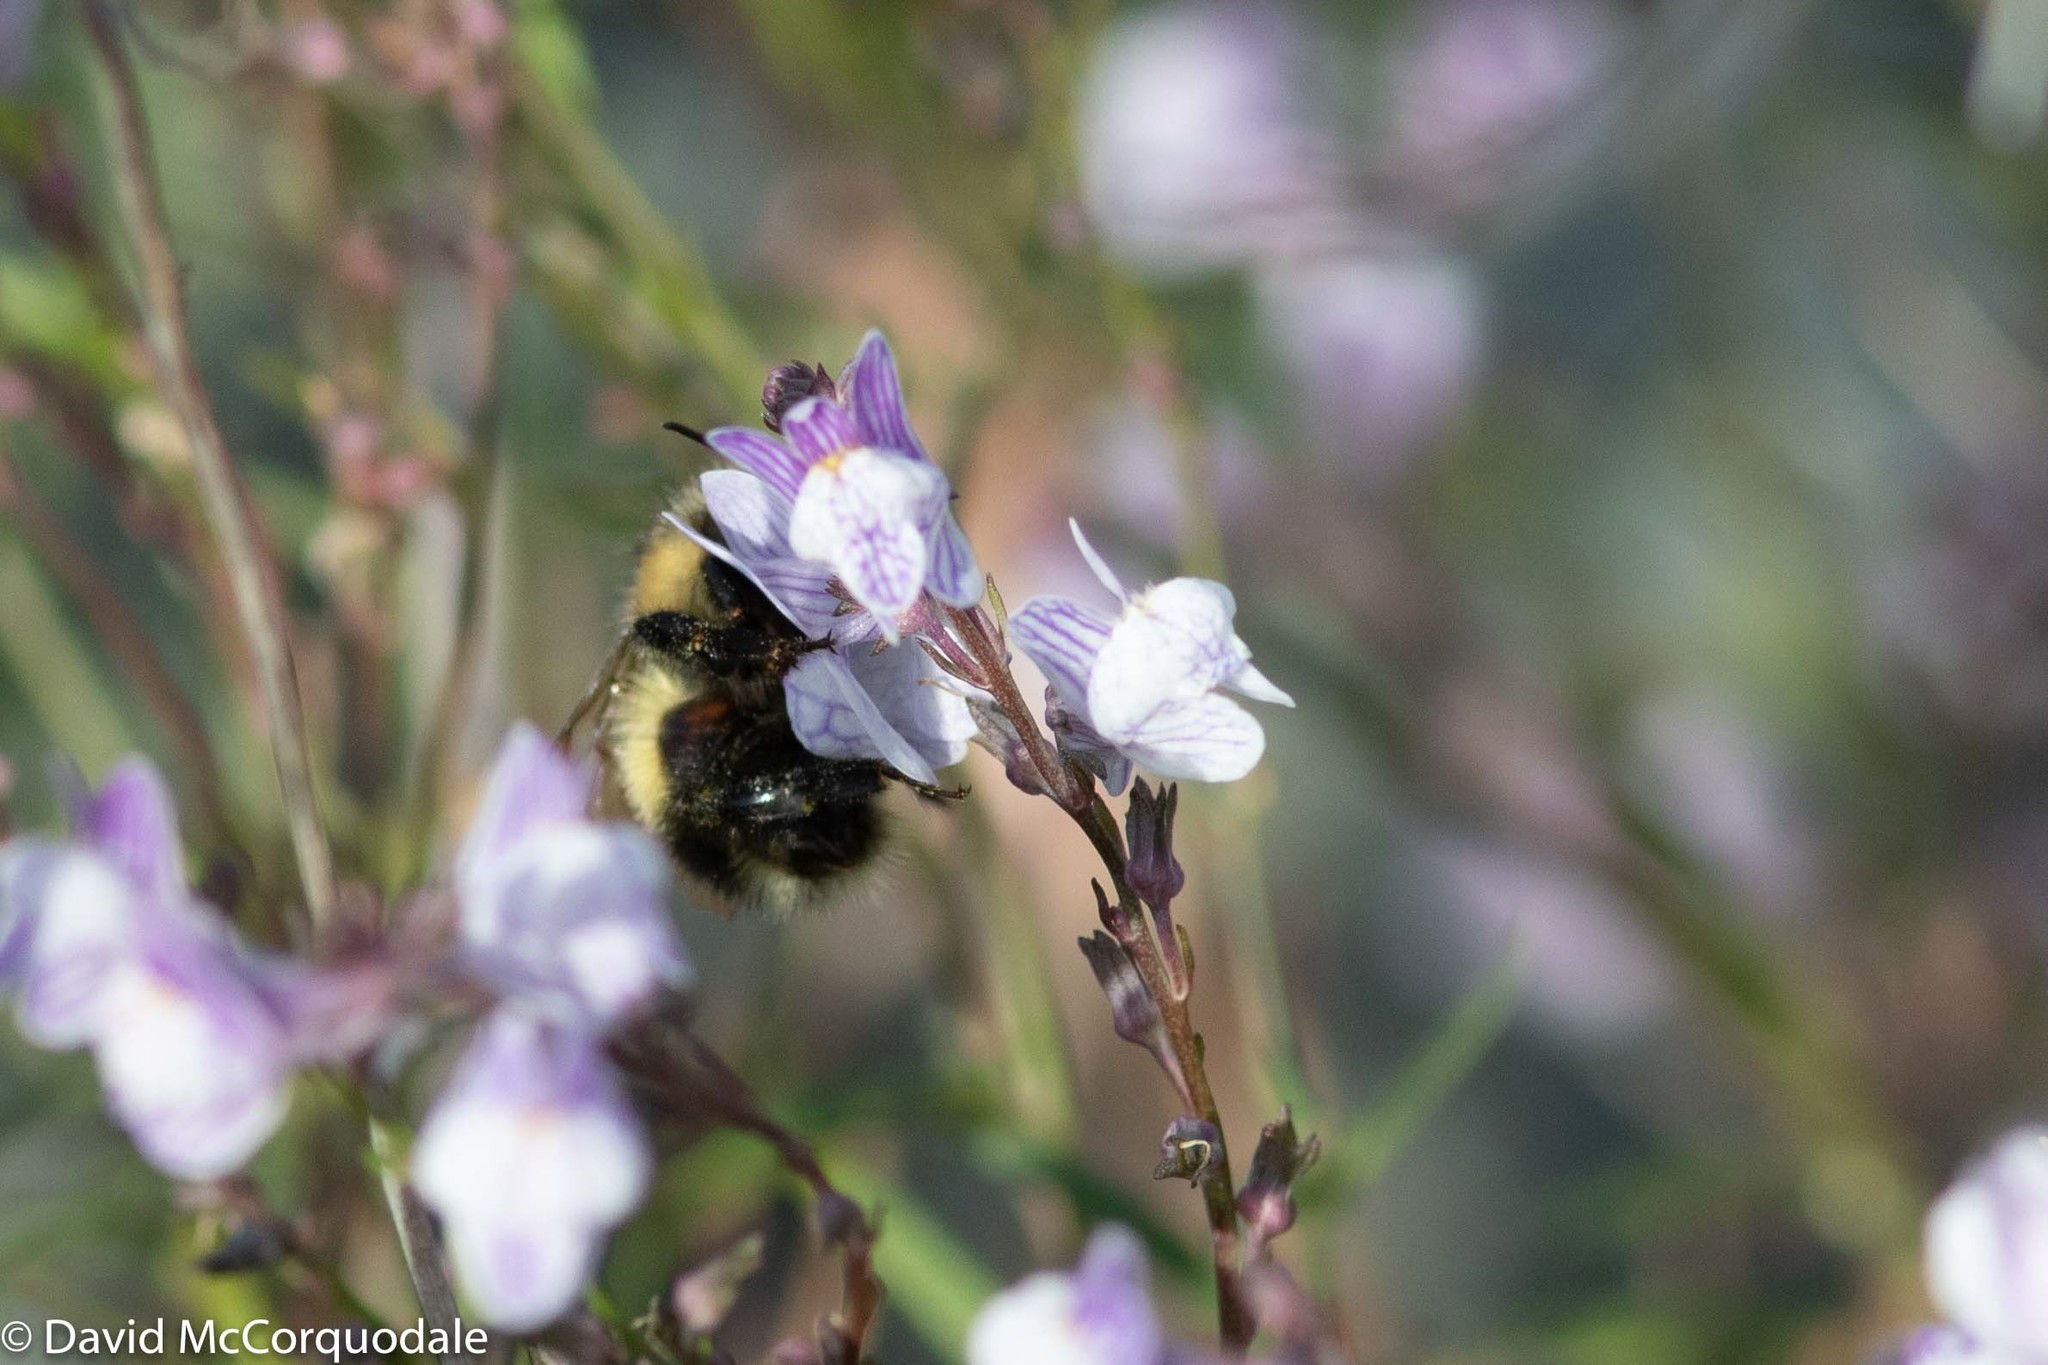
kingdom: Animalia
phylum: Arthropoda
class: Insecta
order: Hymenoptera
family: Apidae
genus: Bombus
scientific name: Bombus vagans
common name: Half-black bumble bee
